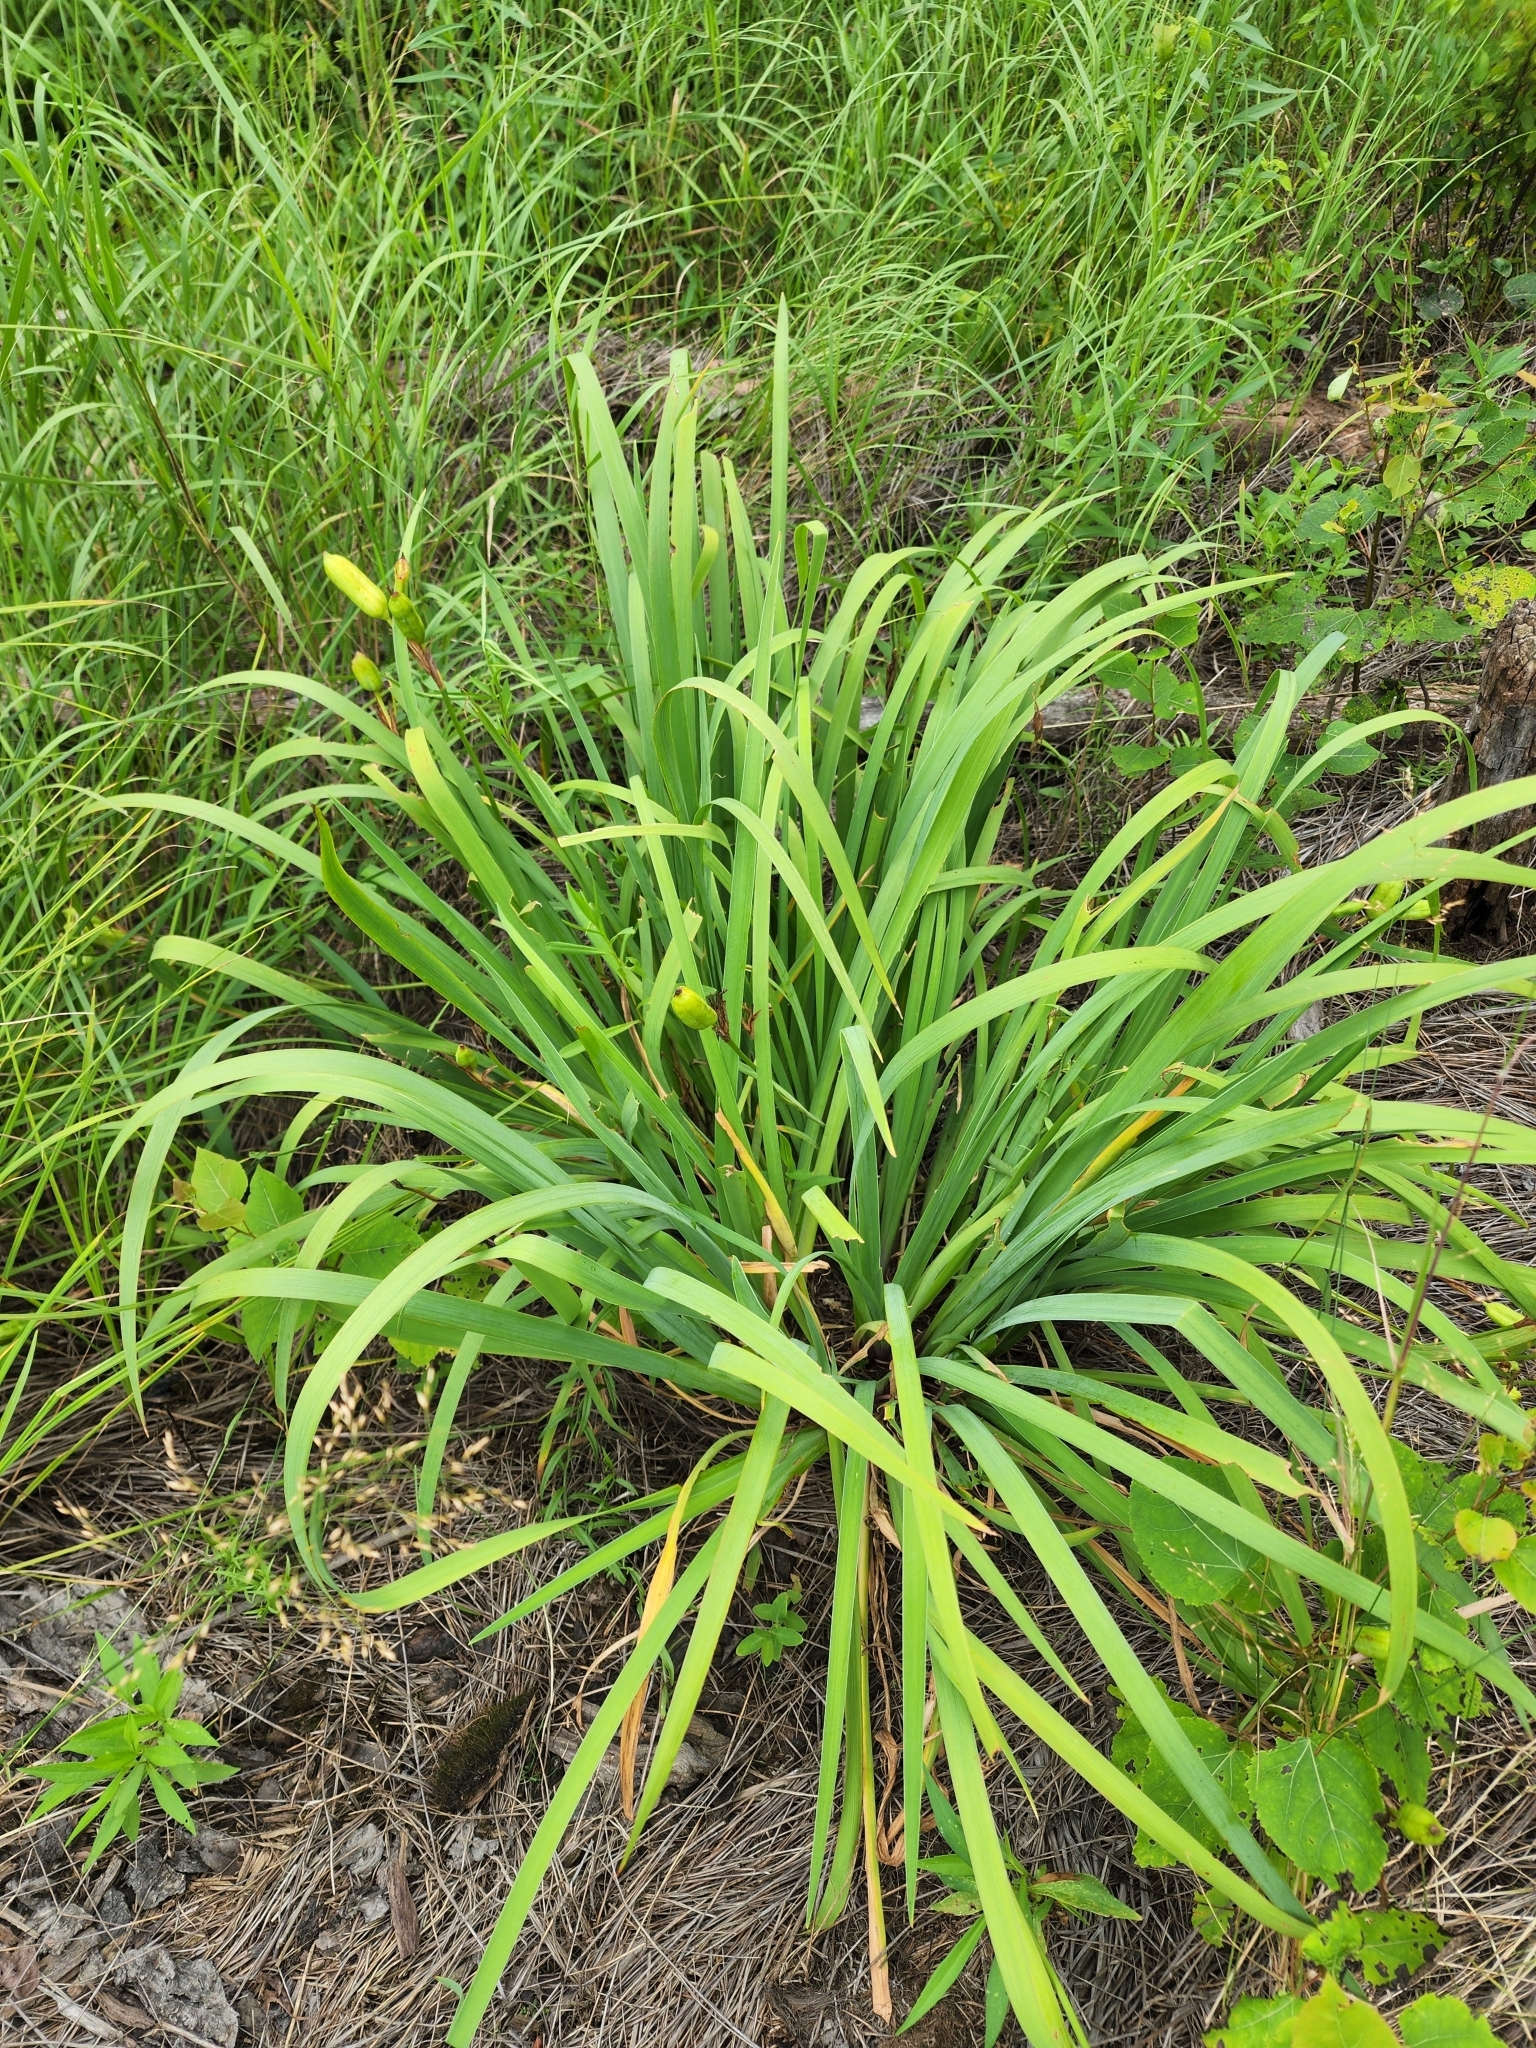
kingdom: Plantae
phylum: Tracheophyta
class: Liliopsida
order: Asparagales
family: Iridaceae
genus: Iris
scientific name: Iris versicolor
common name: Purple iris
